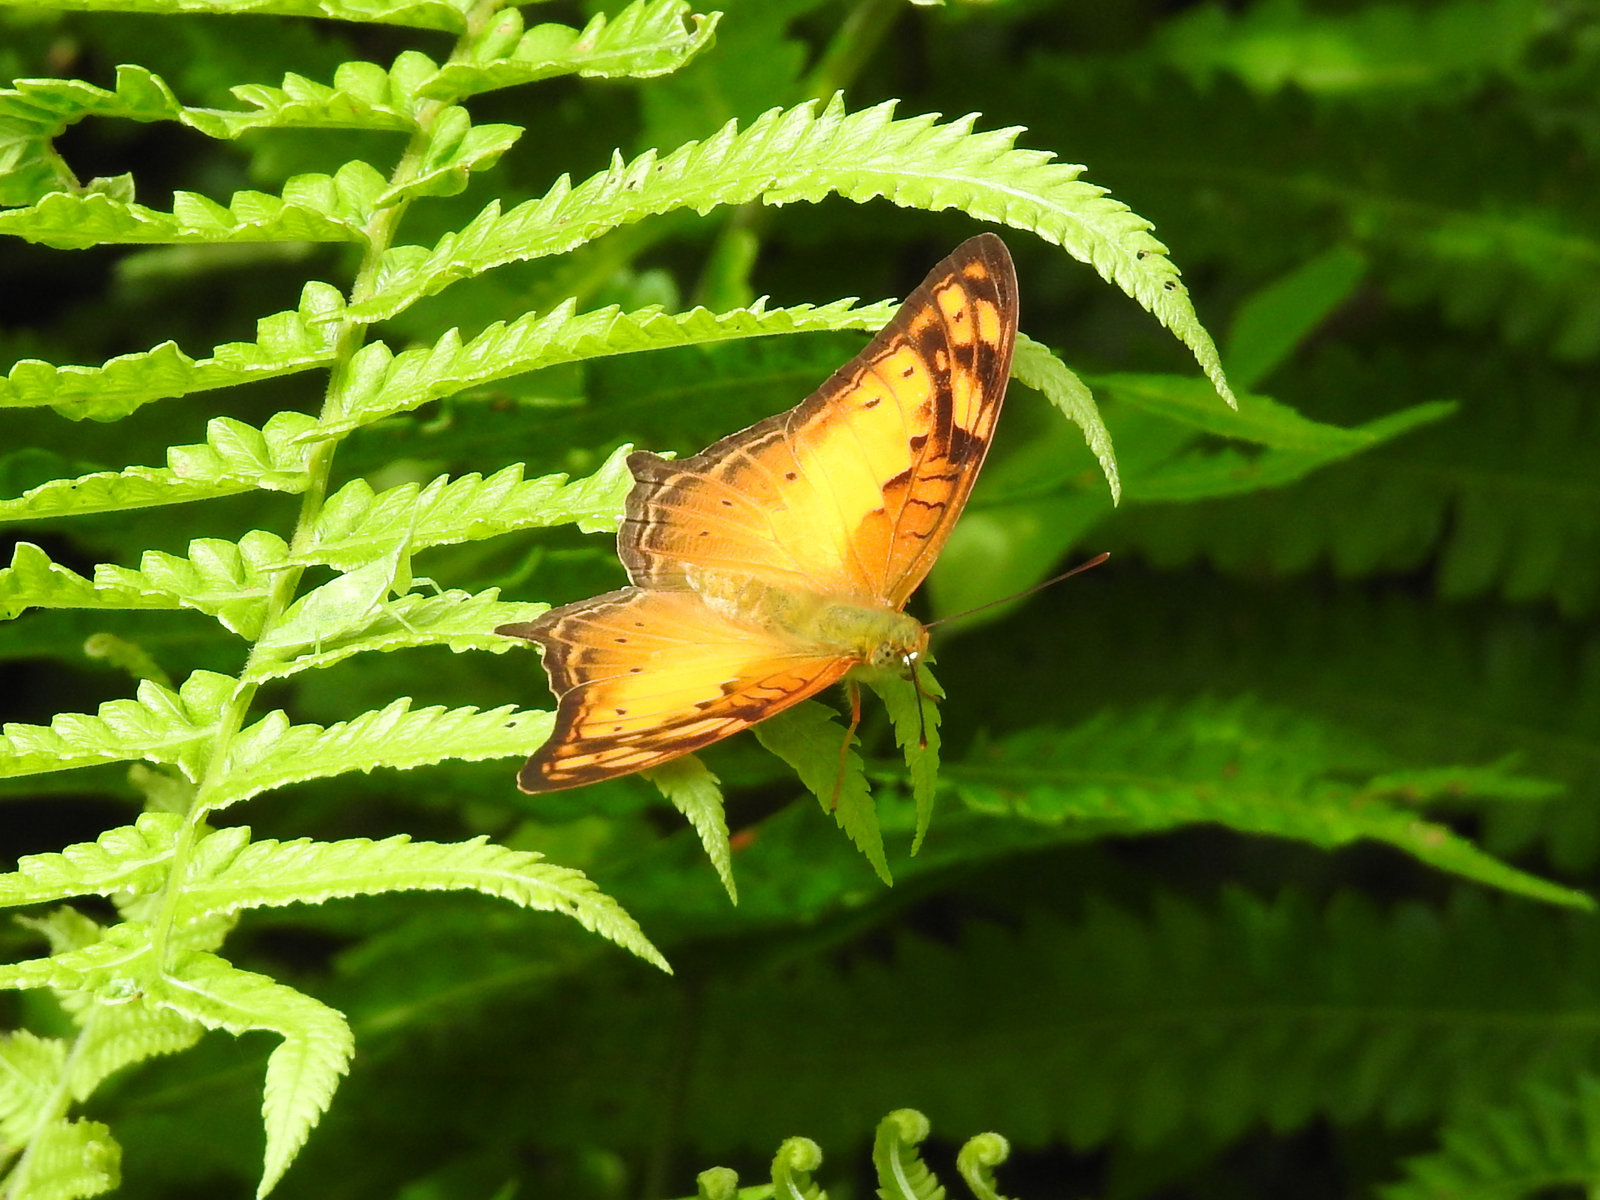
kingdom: Animalia
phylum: Arthropoda
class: Insecta
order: Lepidoptera
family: Nymphalidae
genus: Vagrans
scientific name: Vagrans sinha
